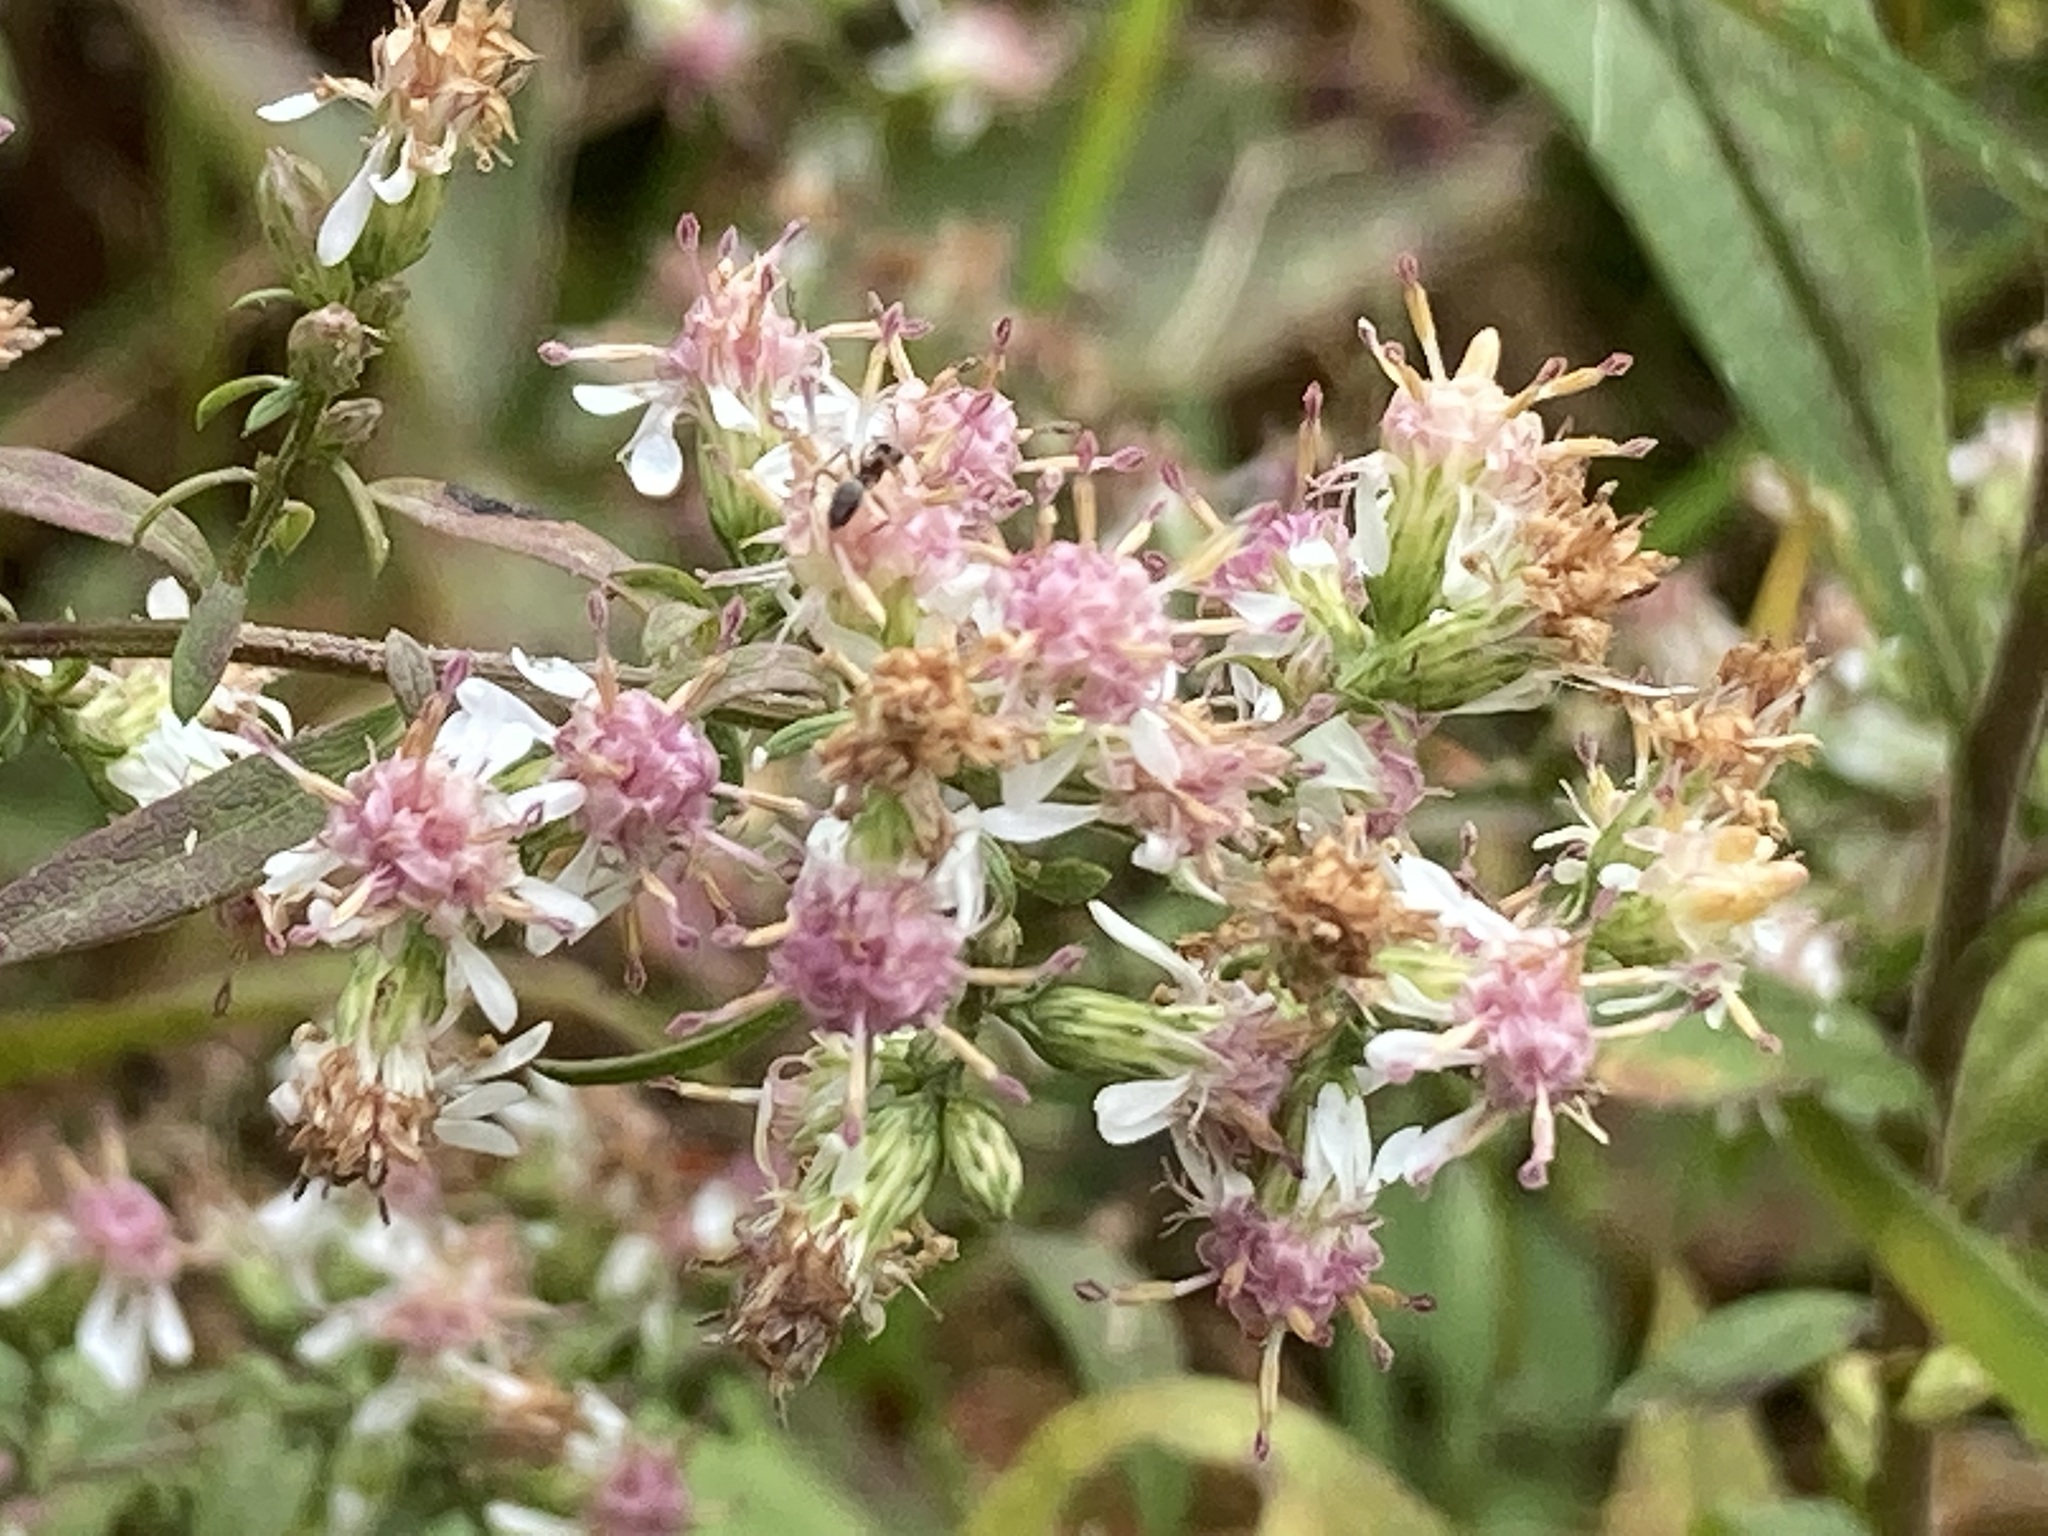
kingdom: Plantae
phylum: Tracheophyta
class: Magnoliopsida
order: Asterales
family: Asteraceae
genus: Symphyotrichum
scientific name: Symphyotrichum lateriflorum
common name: Calico aster
